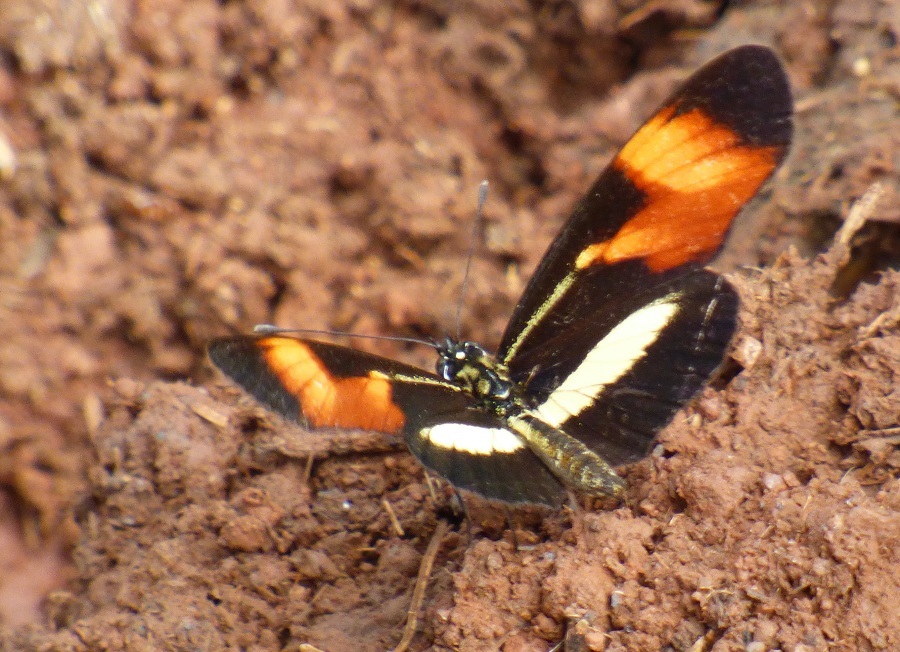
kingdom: Animalia
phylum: Arthropoda
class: Insecta
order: Lepidoptera
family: Nymphalidae
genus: Eresia
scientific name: Eresia lansdorfi
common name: Lansdorf's crescent
